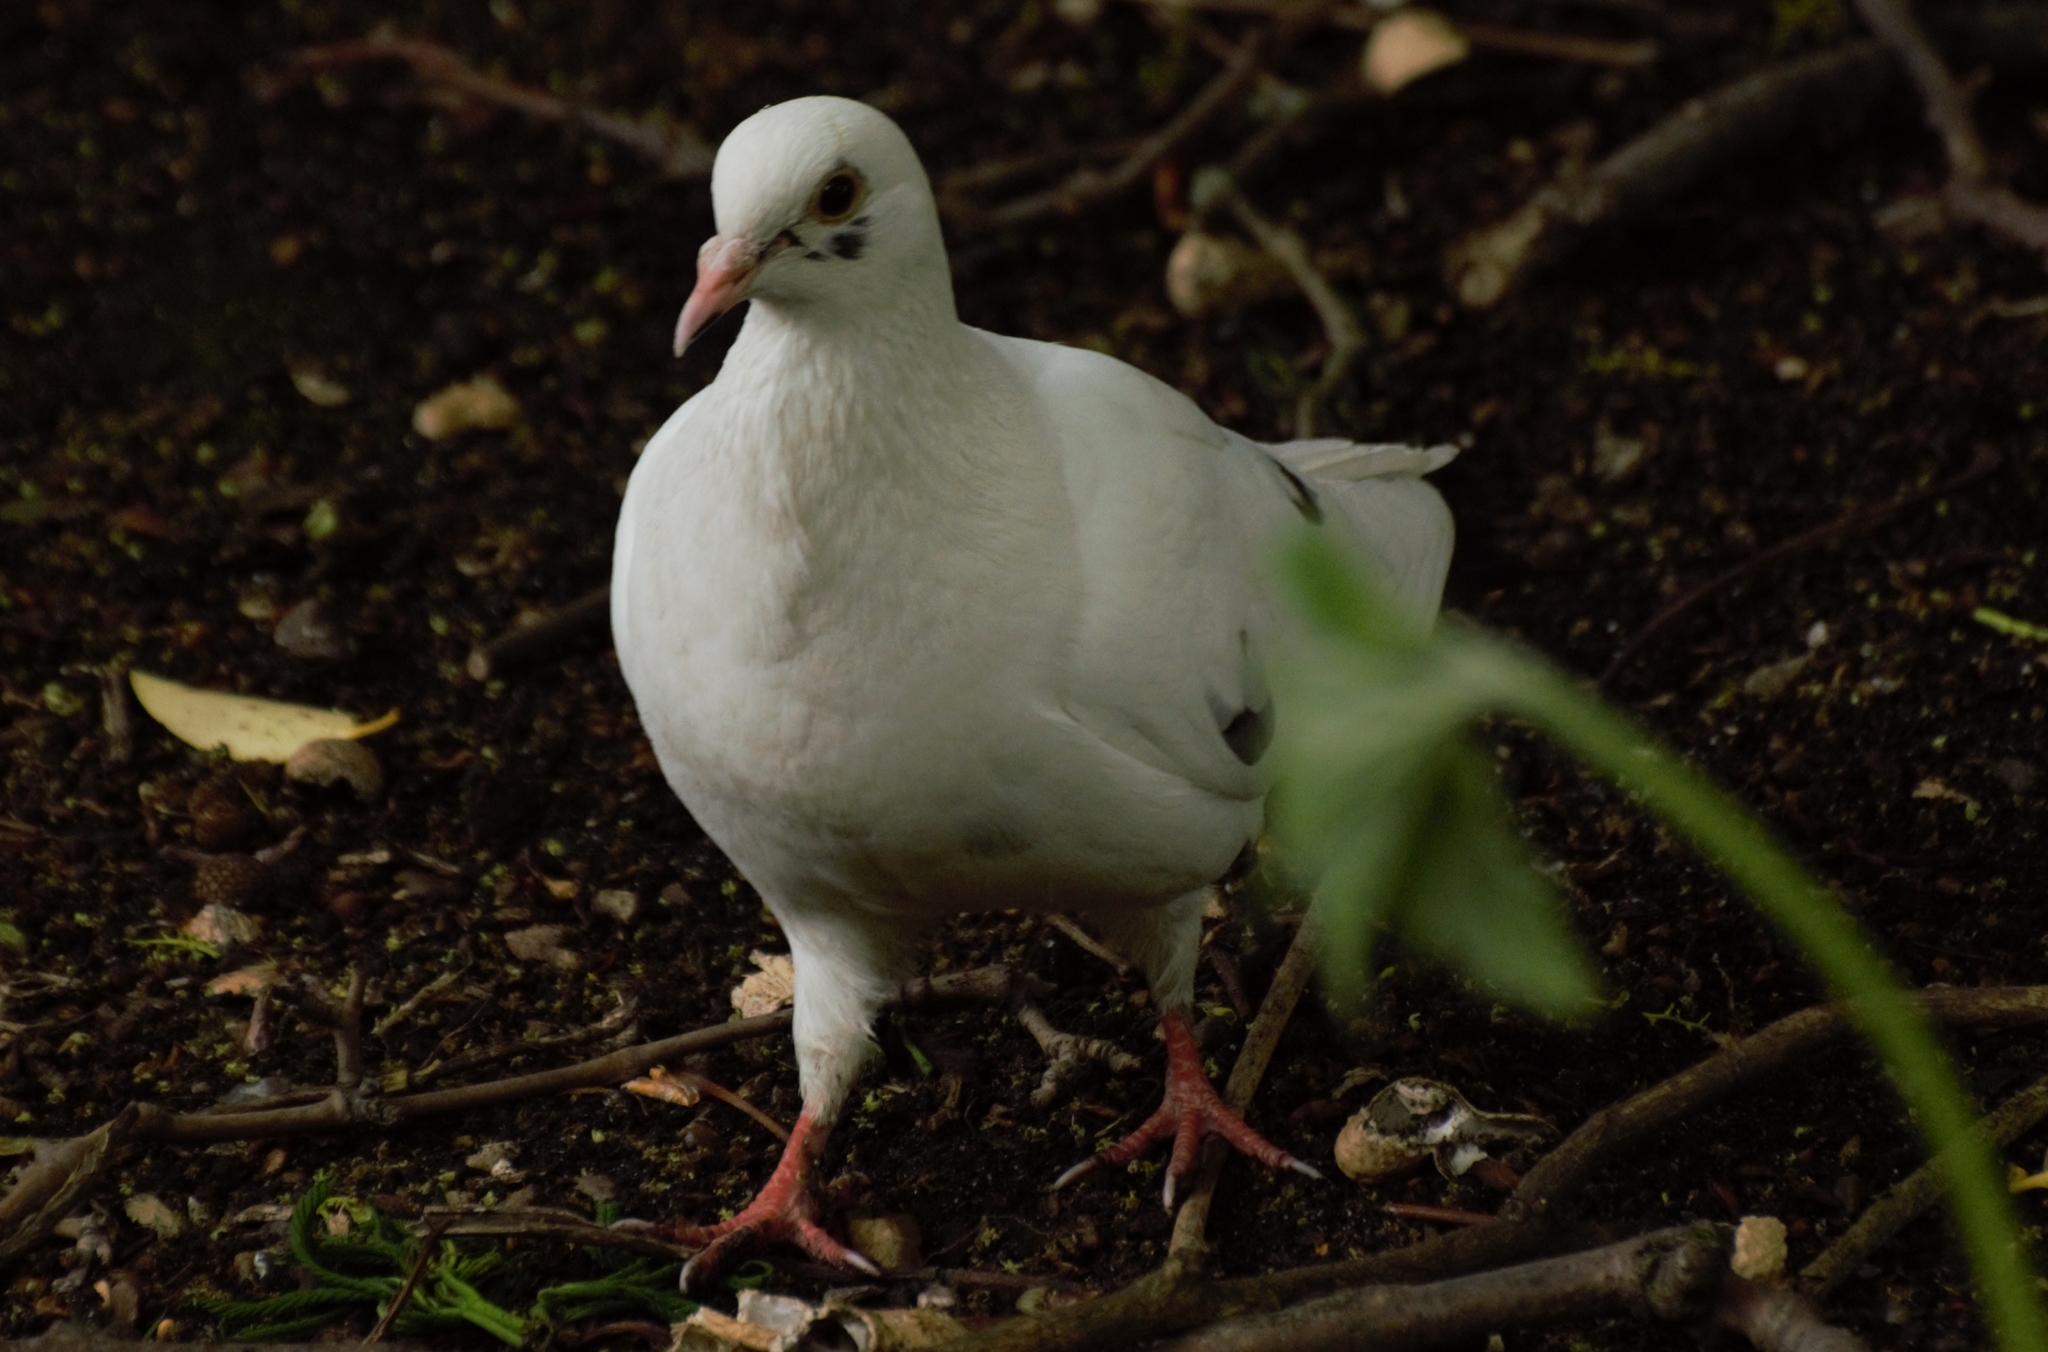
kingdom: Animalia
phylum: Chordata
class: Aves
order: Columbiformes
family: Columbidae
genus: Columba
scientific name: Columba livia
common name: Rock pigeon
